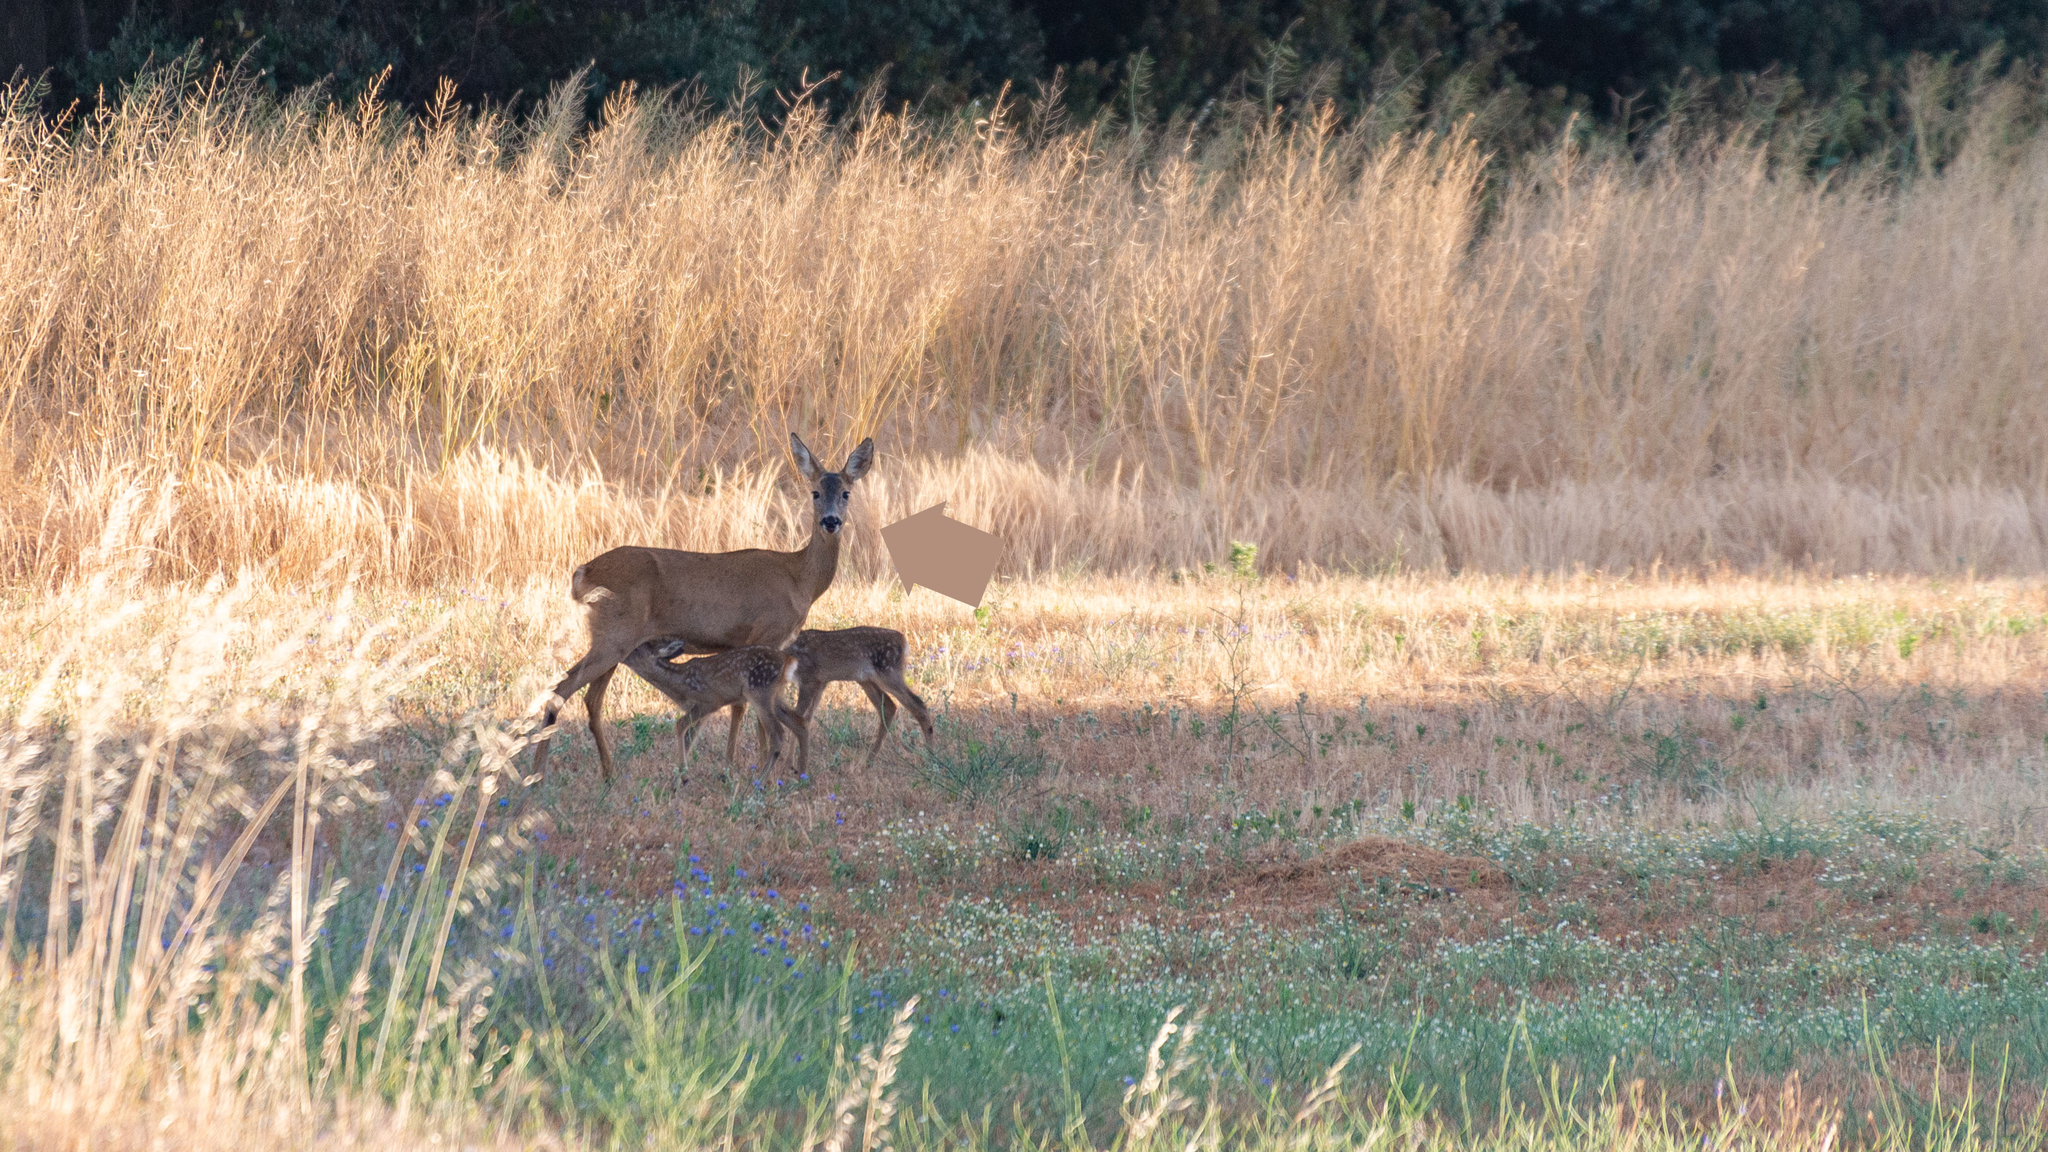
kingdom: Animalia
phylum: Chordata
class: Mammalia
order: Artiodactyla
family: Cervidae
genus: Capreolus
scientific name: Capreolus capreolus
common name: Western roe deer
